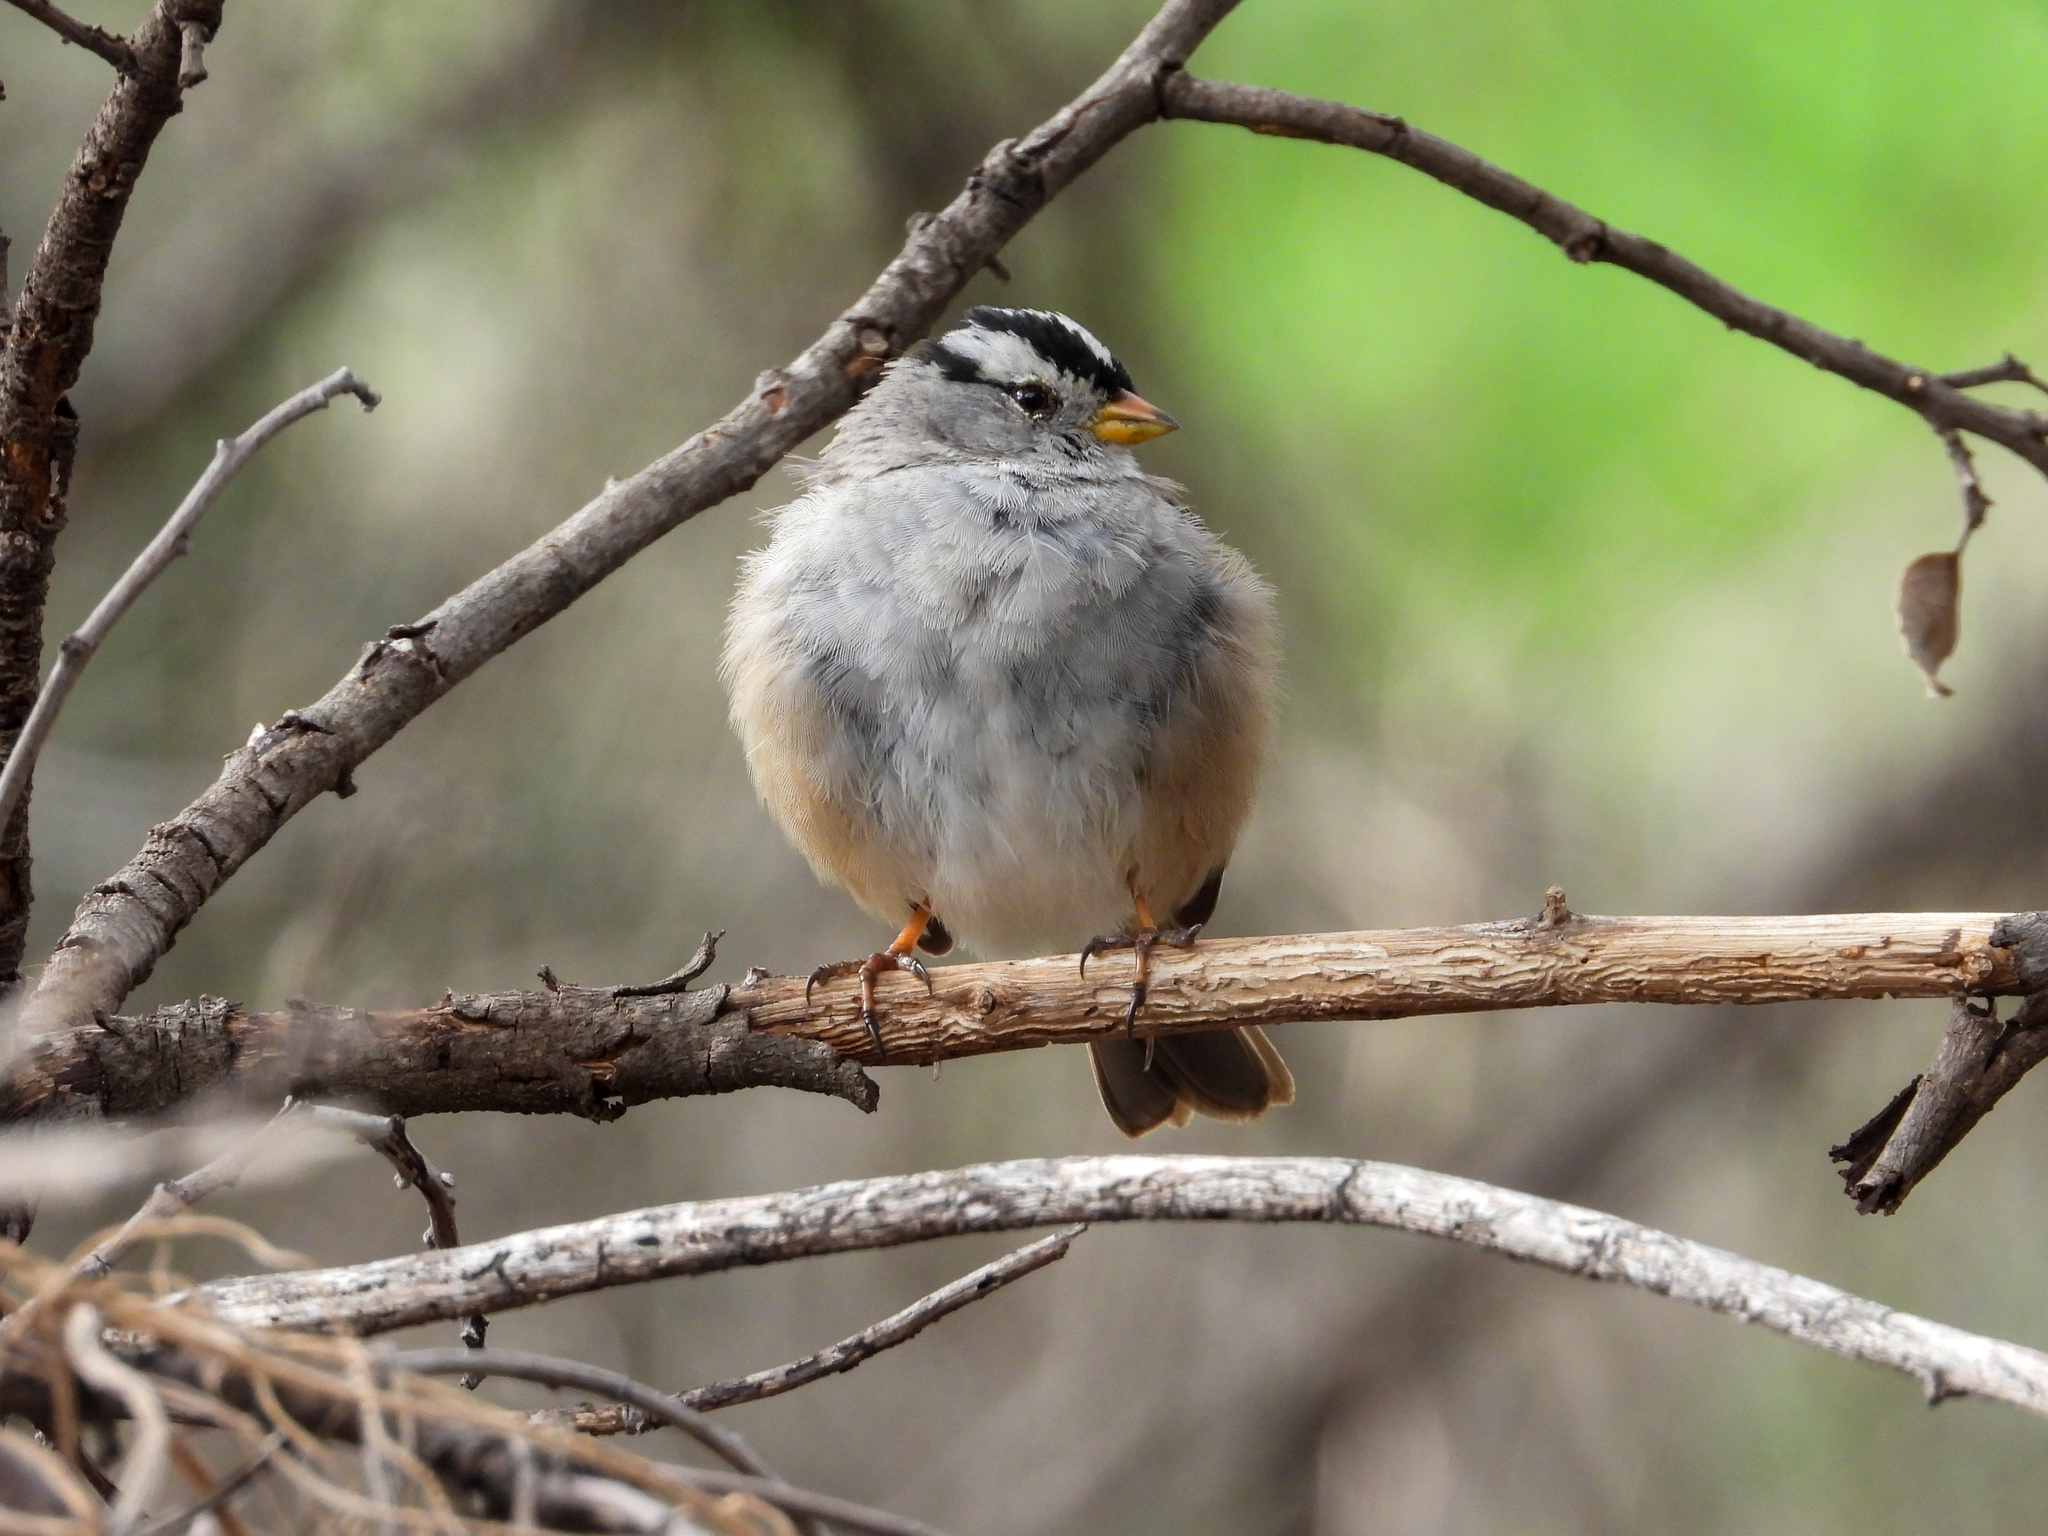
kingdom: Animalia
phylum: Chordata
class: Aves
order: Passeriformes
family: Passerellidae
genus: Zonotrichia
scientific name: Zonotrichia leucophrys
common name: White-crowned sparrow
